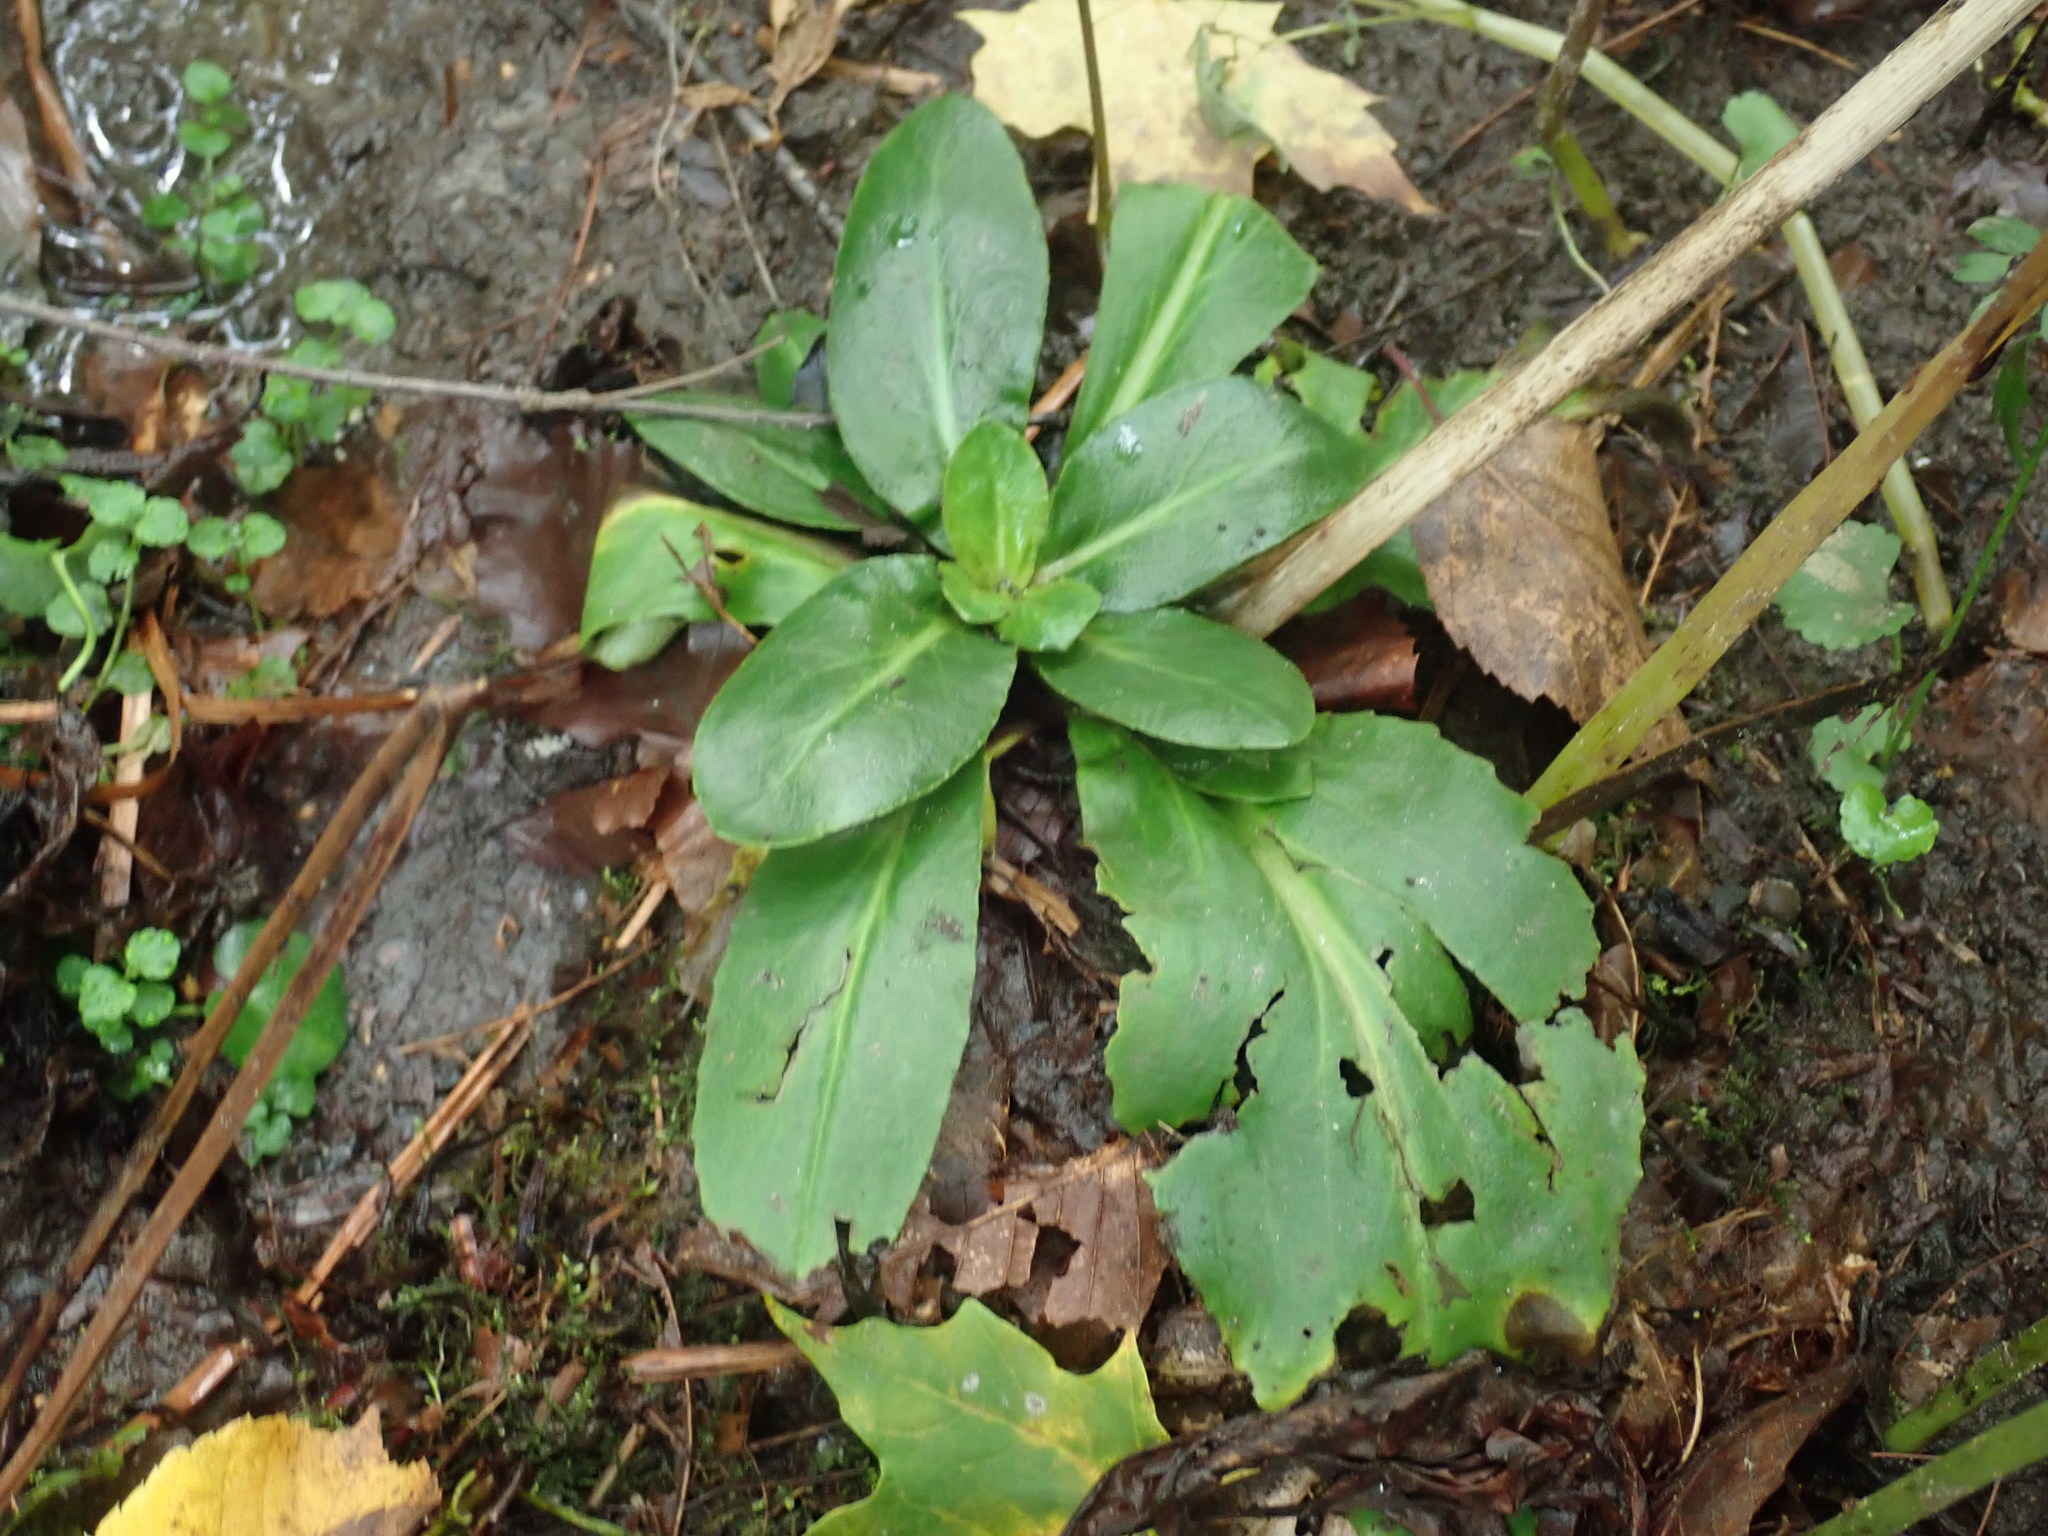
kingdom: Plantae
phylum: Tracheophyta
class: Magnoliopsida
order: Saxifragales
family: Saxifragaceae
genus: Micranthes
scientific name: Micranthes pensylvanica
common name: Marsh saxifrage
